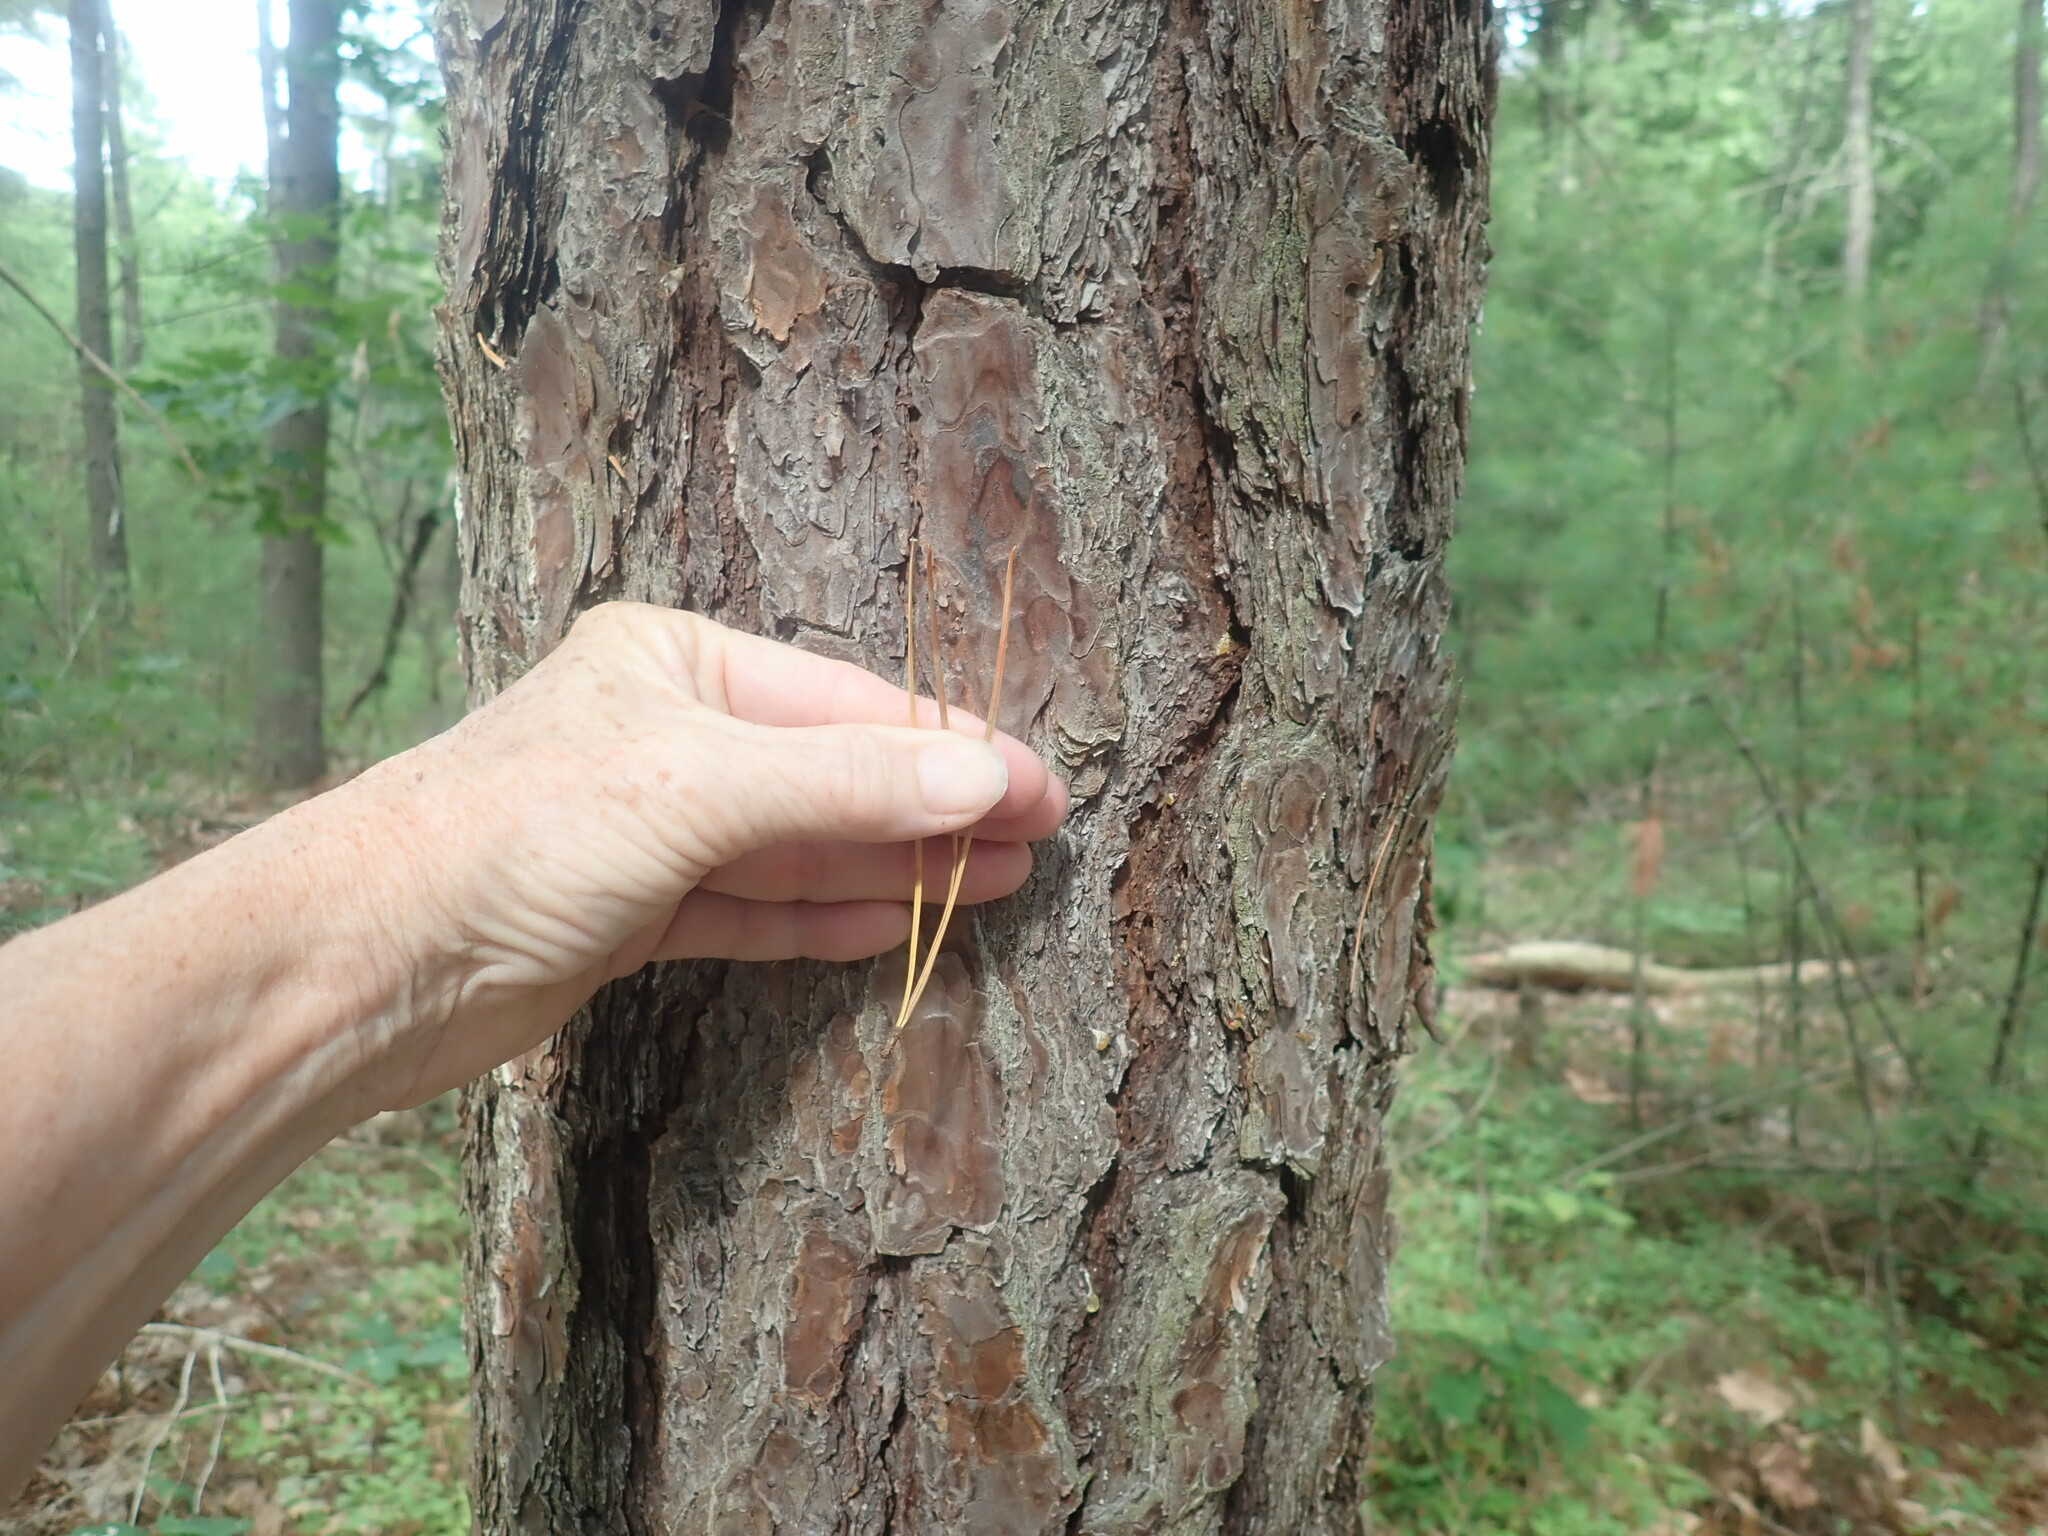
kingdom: Plantae
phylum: Tracheophyta
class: Pinopsida
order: Pinales
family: Pinaceae
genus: Pinus
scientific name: Pinus rigida
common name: Pitch pine
